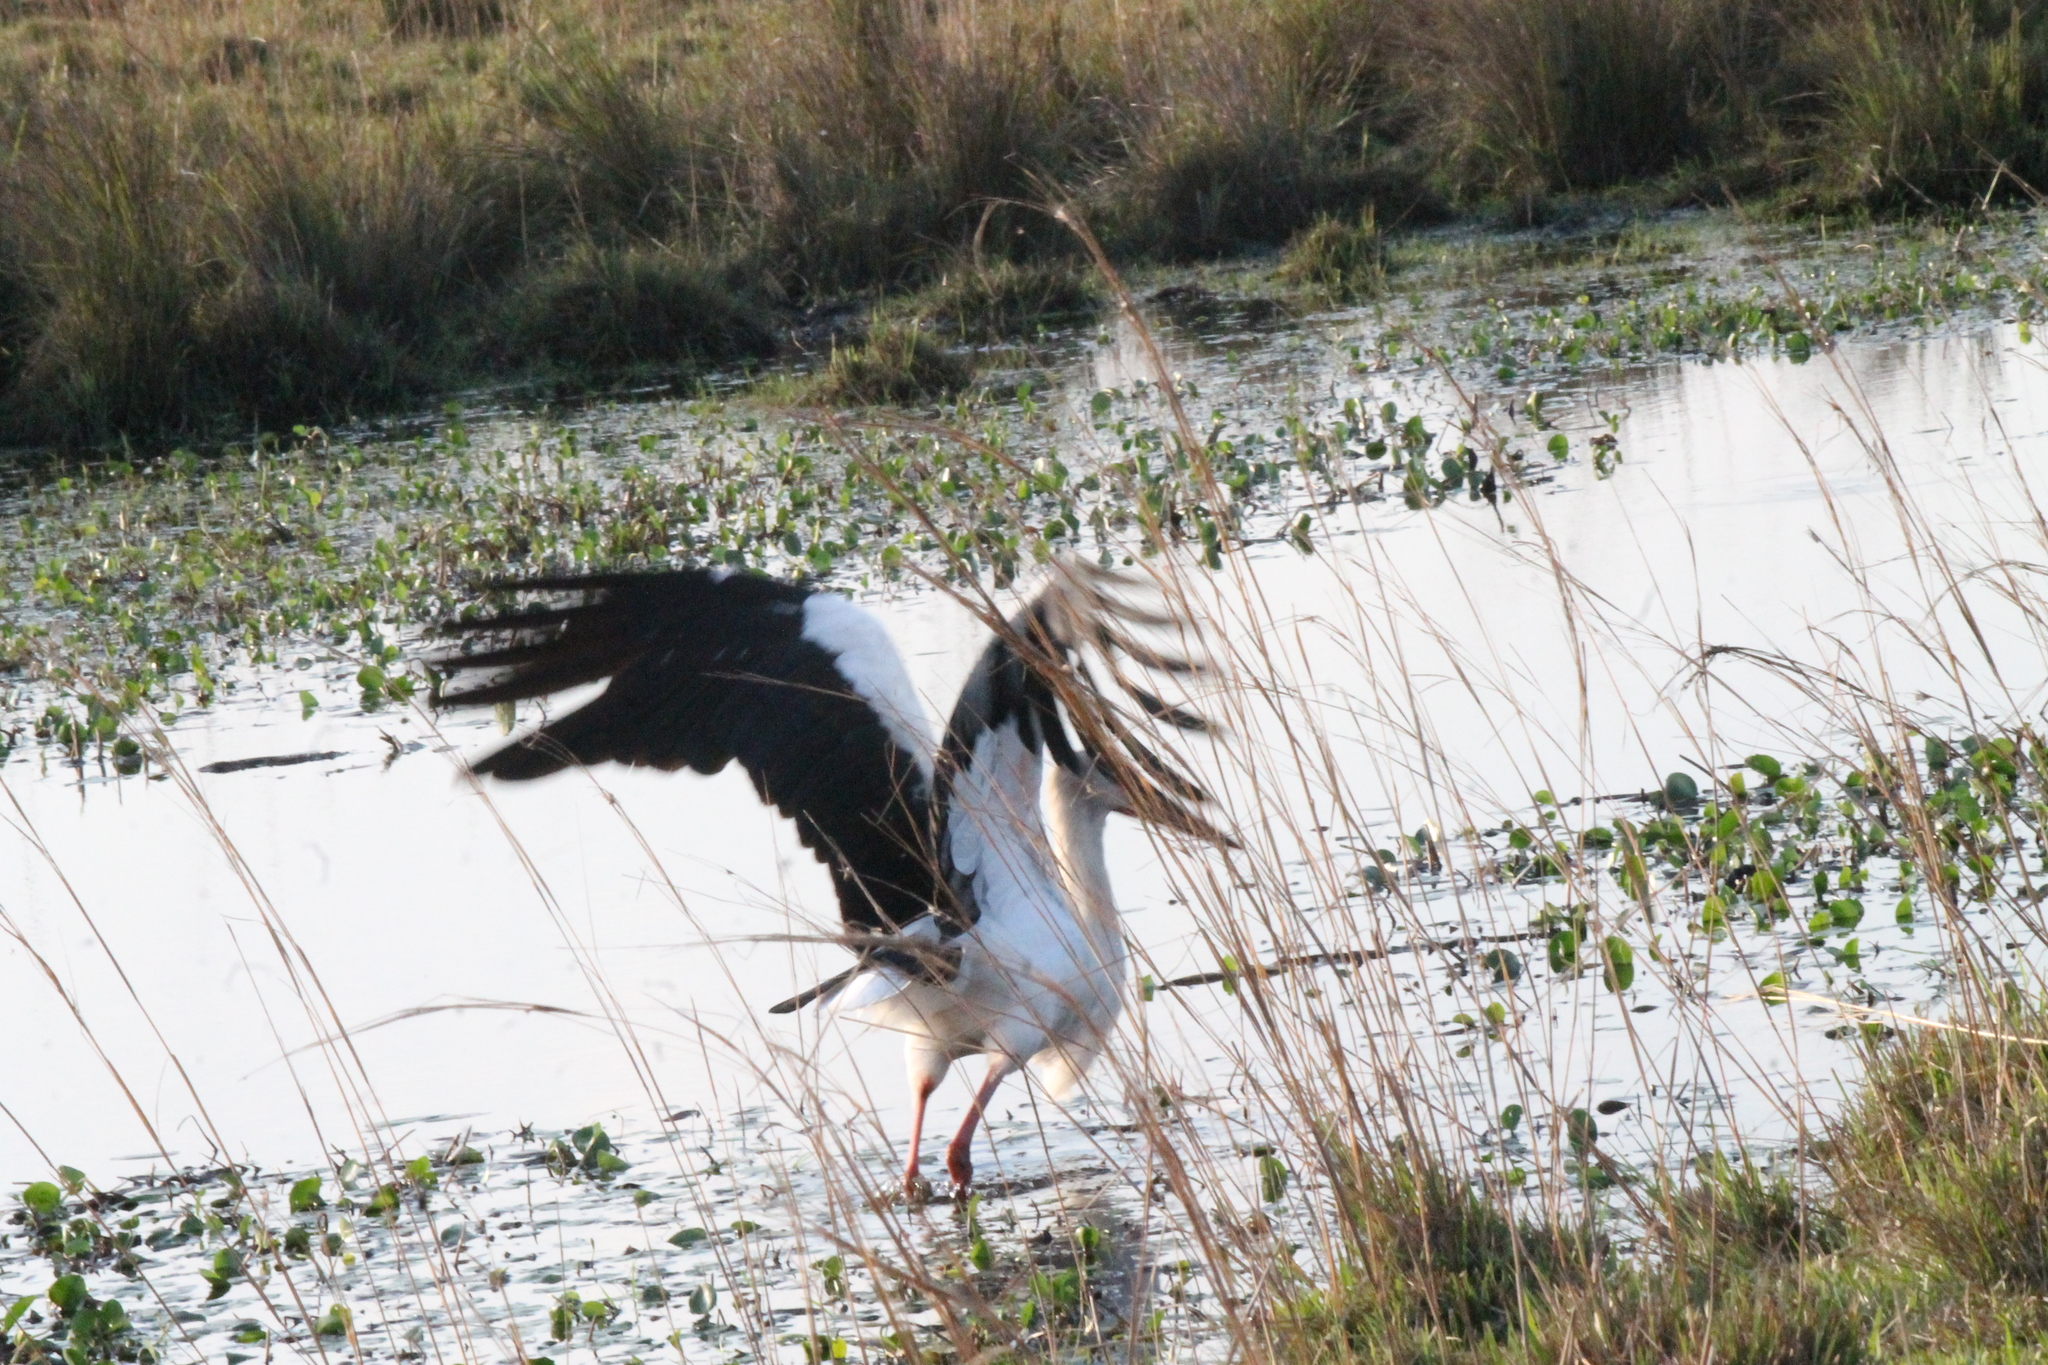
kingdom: Animalia
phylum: Chordata
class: Aves
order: Ciconiiformes
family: Ciconiidae
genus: Ciconia
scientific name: Ciconia maguari
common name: Maguari stork
